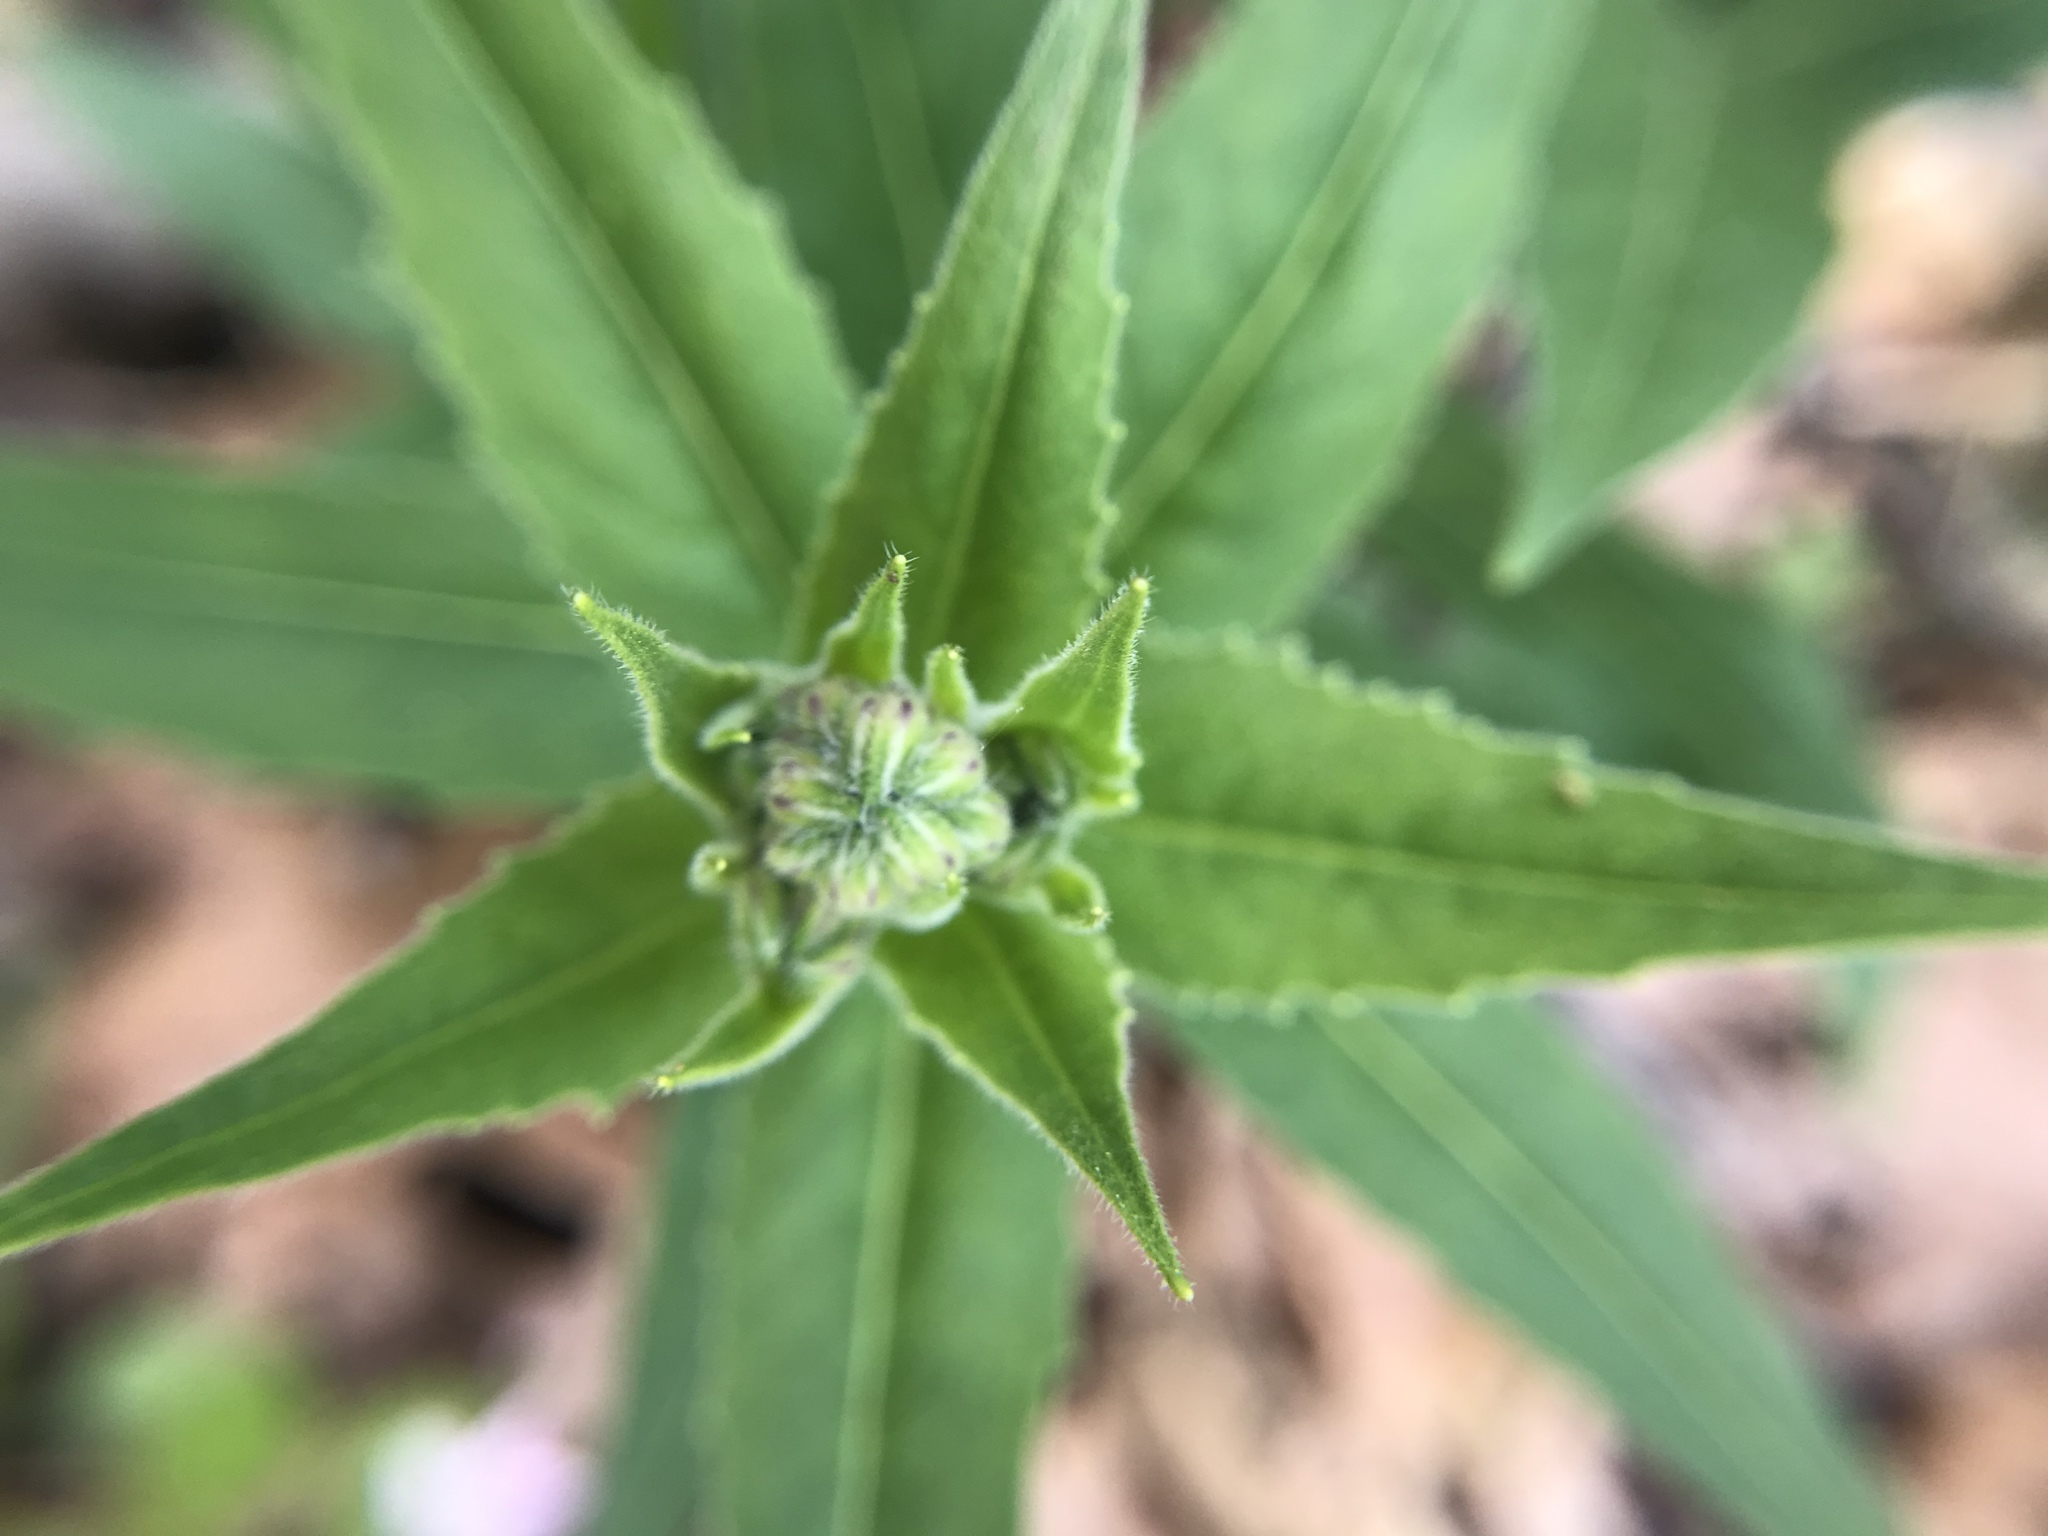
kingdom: Plantae
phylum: Tracheophyta
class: Magnoliopsida
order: Brassicales
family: Brassicaceae
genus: Hesperis
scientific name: Hesperis matronalis
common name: Dame's-violet
